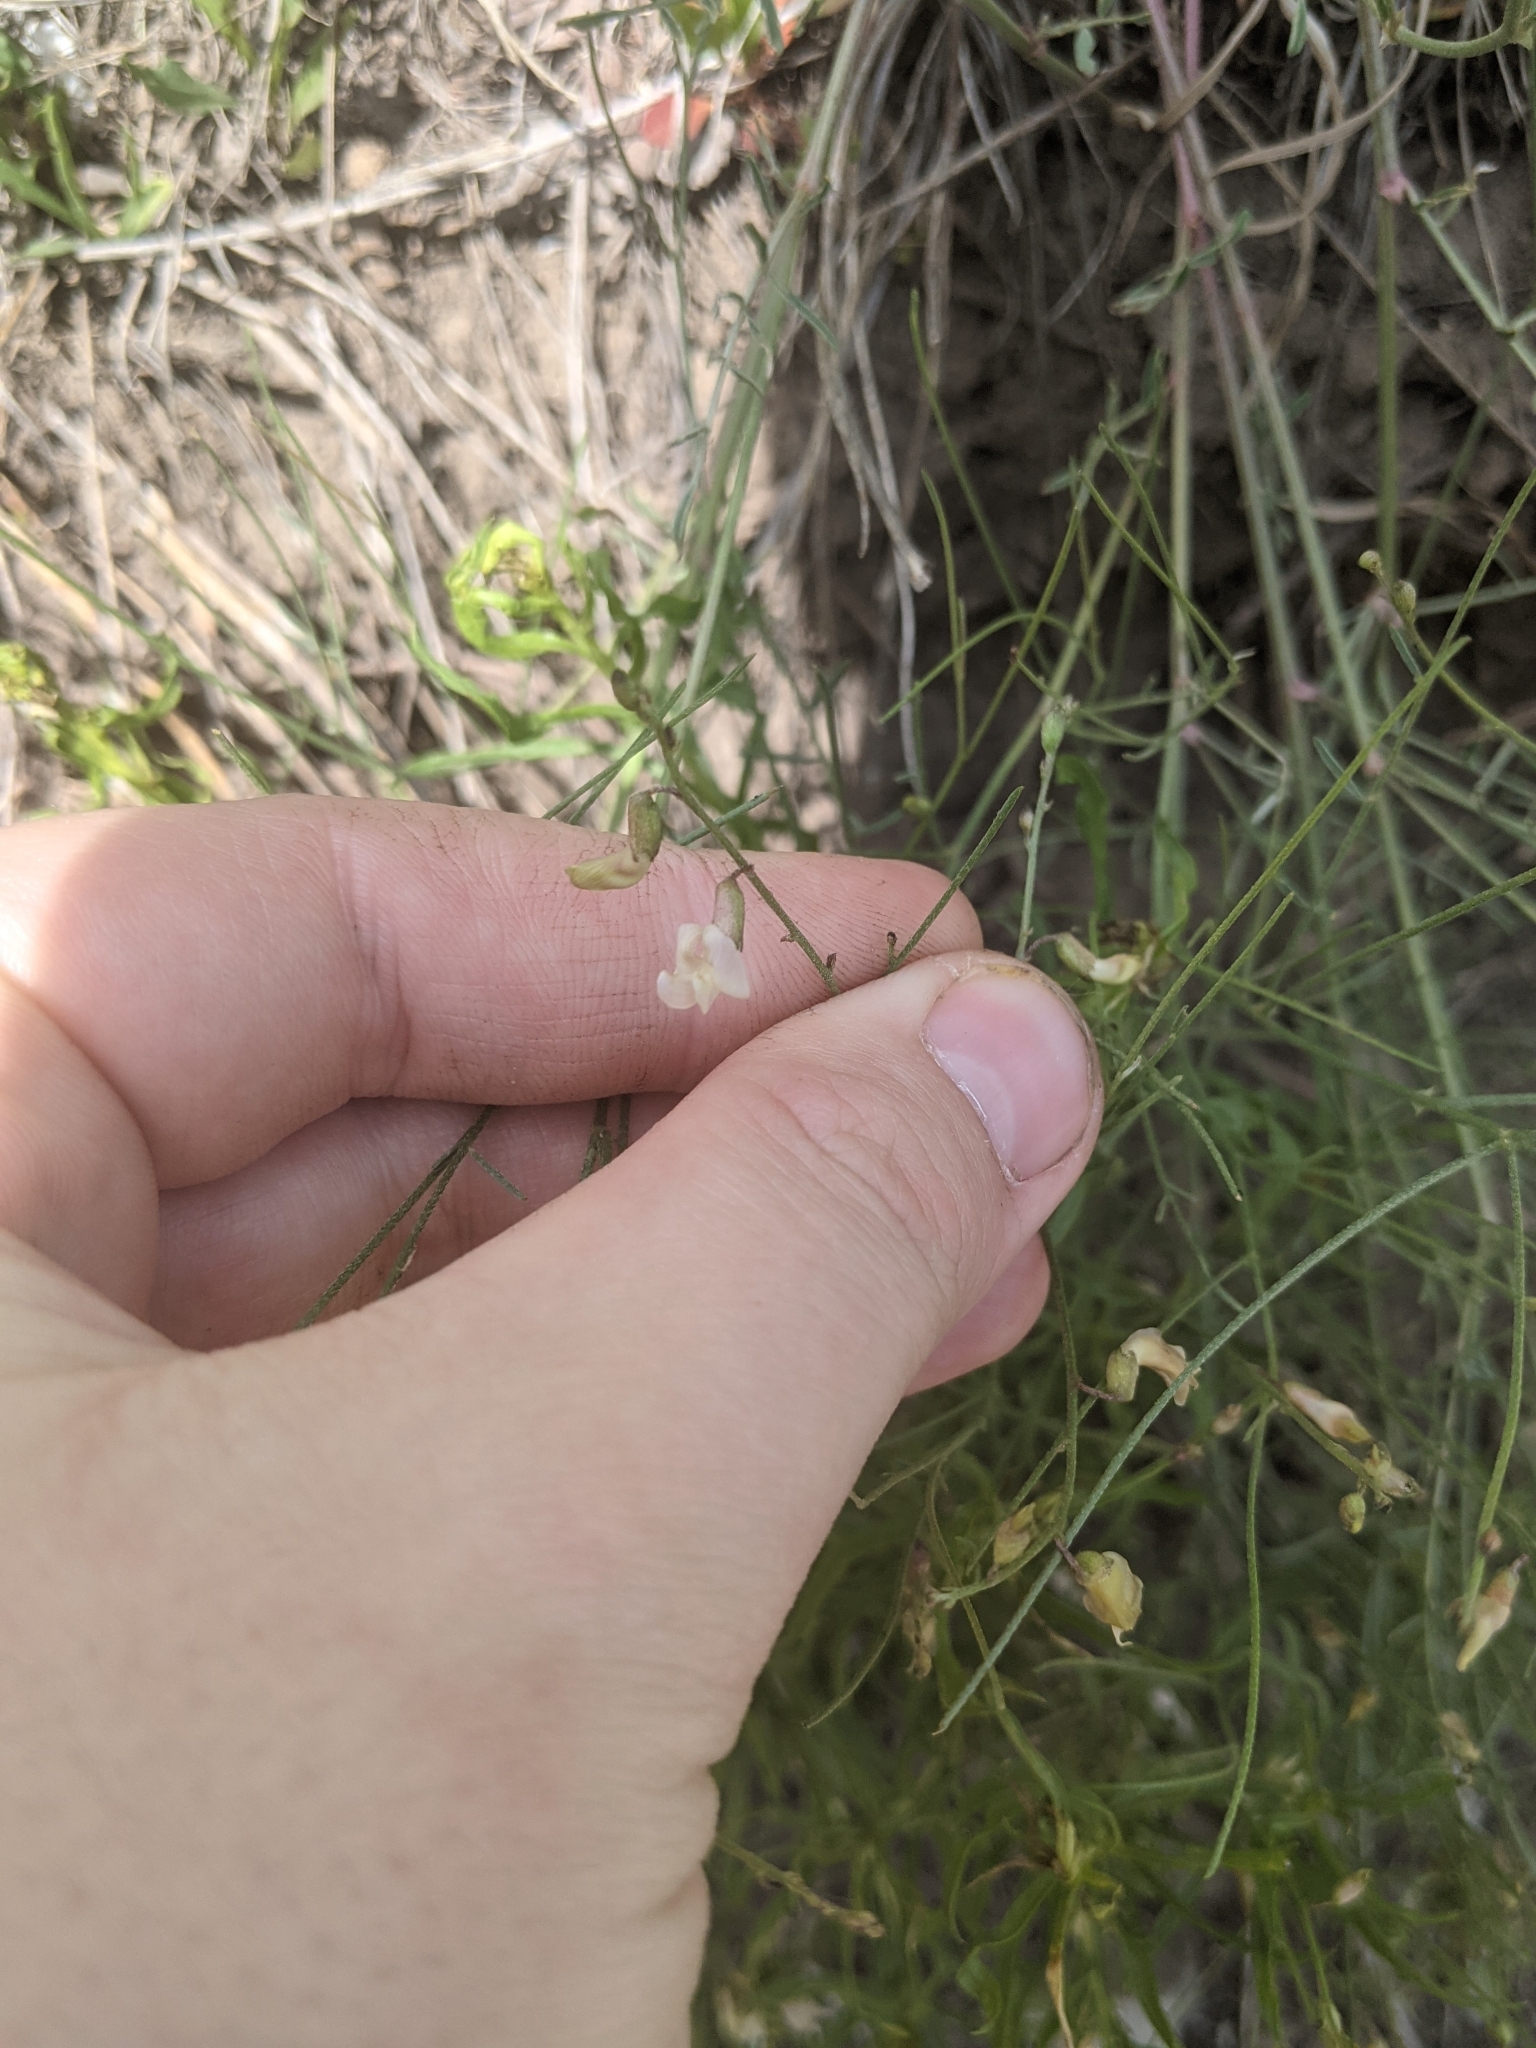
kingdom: Plantae
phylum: Tracheophyta
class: Magnoliopsida
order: Fabales
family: Fabaceae
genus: Astragalus
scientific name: Astragalus convallarius
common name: Lesser rushy milk-vetch
